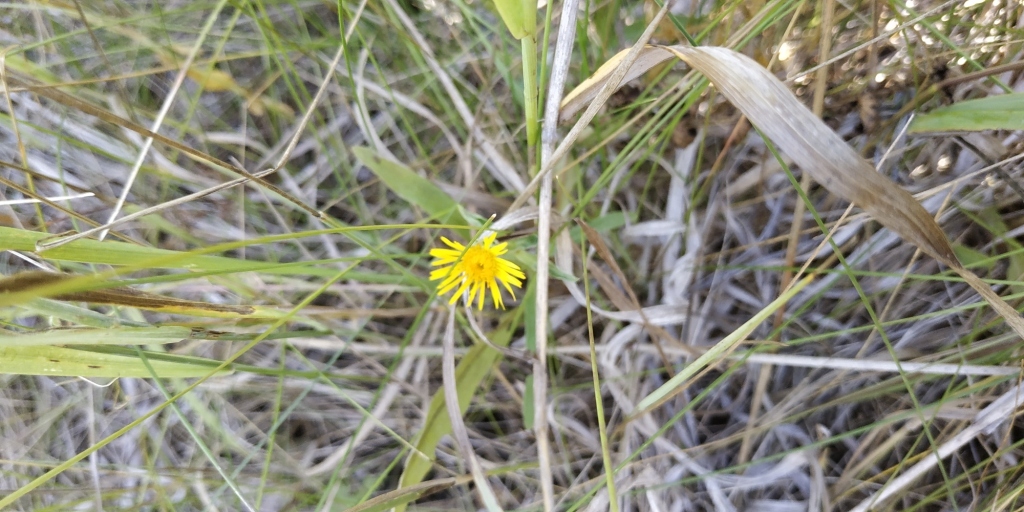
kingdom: Plantae
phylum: Tracheophyta
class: Magnoliopsida
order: Asterales
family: Asteraceae
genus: Pentanema
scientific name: Pentanema britannicum
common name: British elecampane
